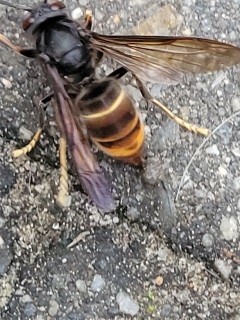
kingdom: Animalia
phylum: Arthropoda
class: Insecta
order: Hymenoptera
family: Vespidae
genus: Vespa
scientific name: Vespa velutina
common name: Asian hornet
